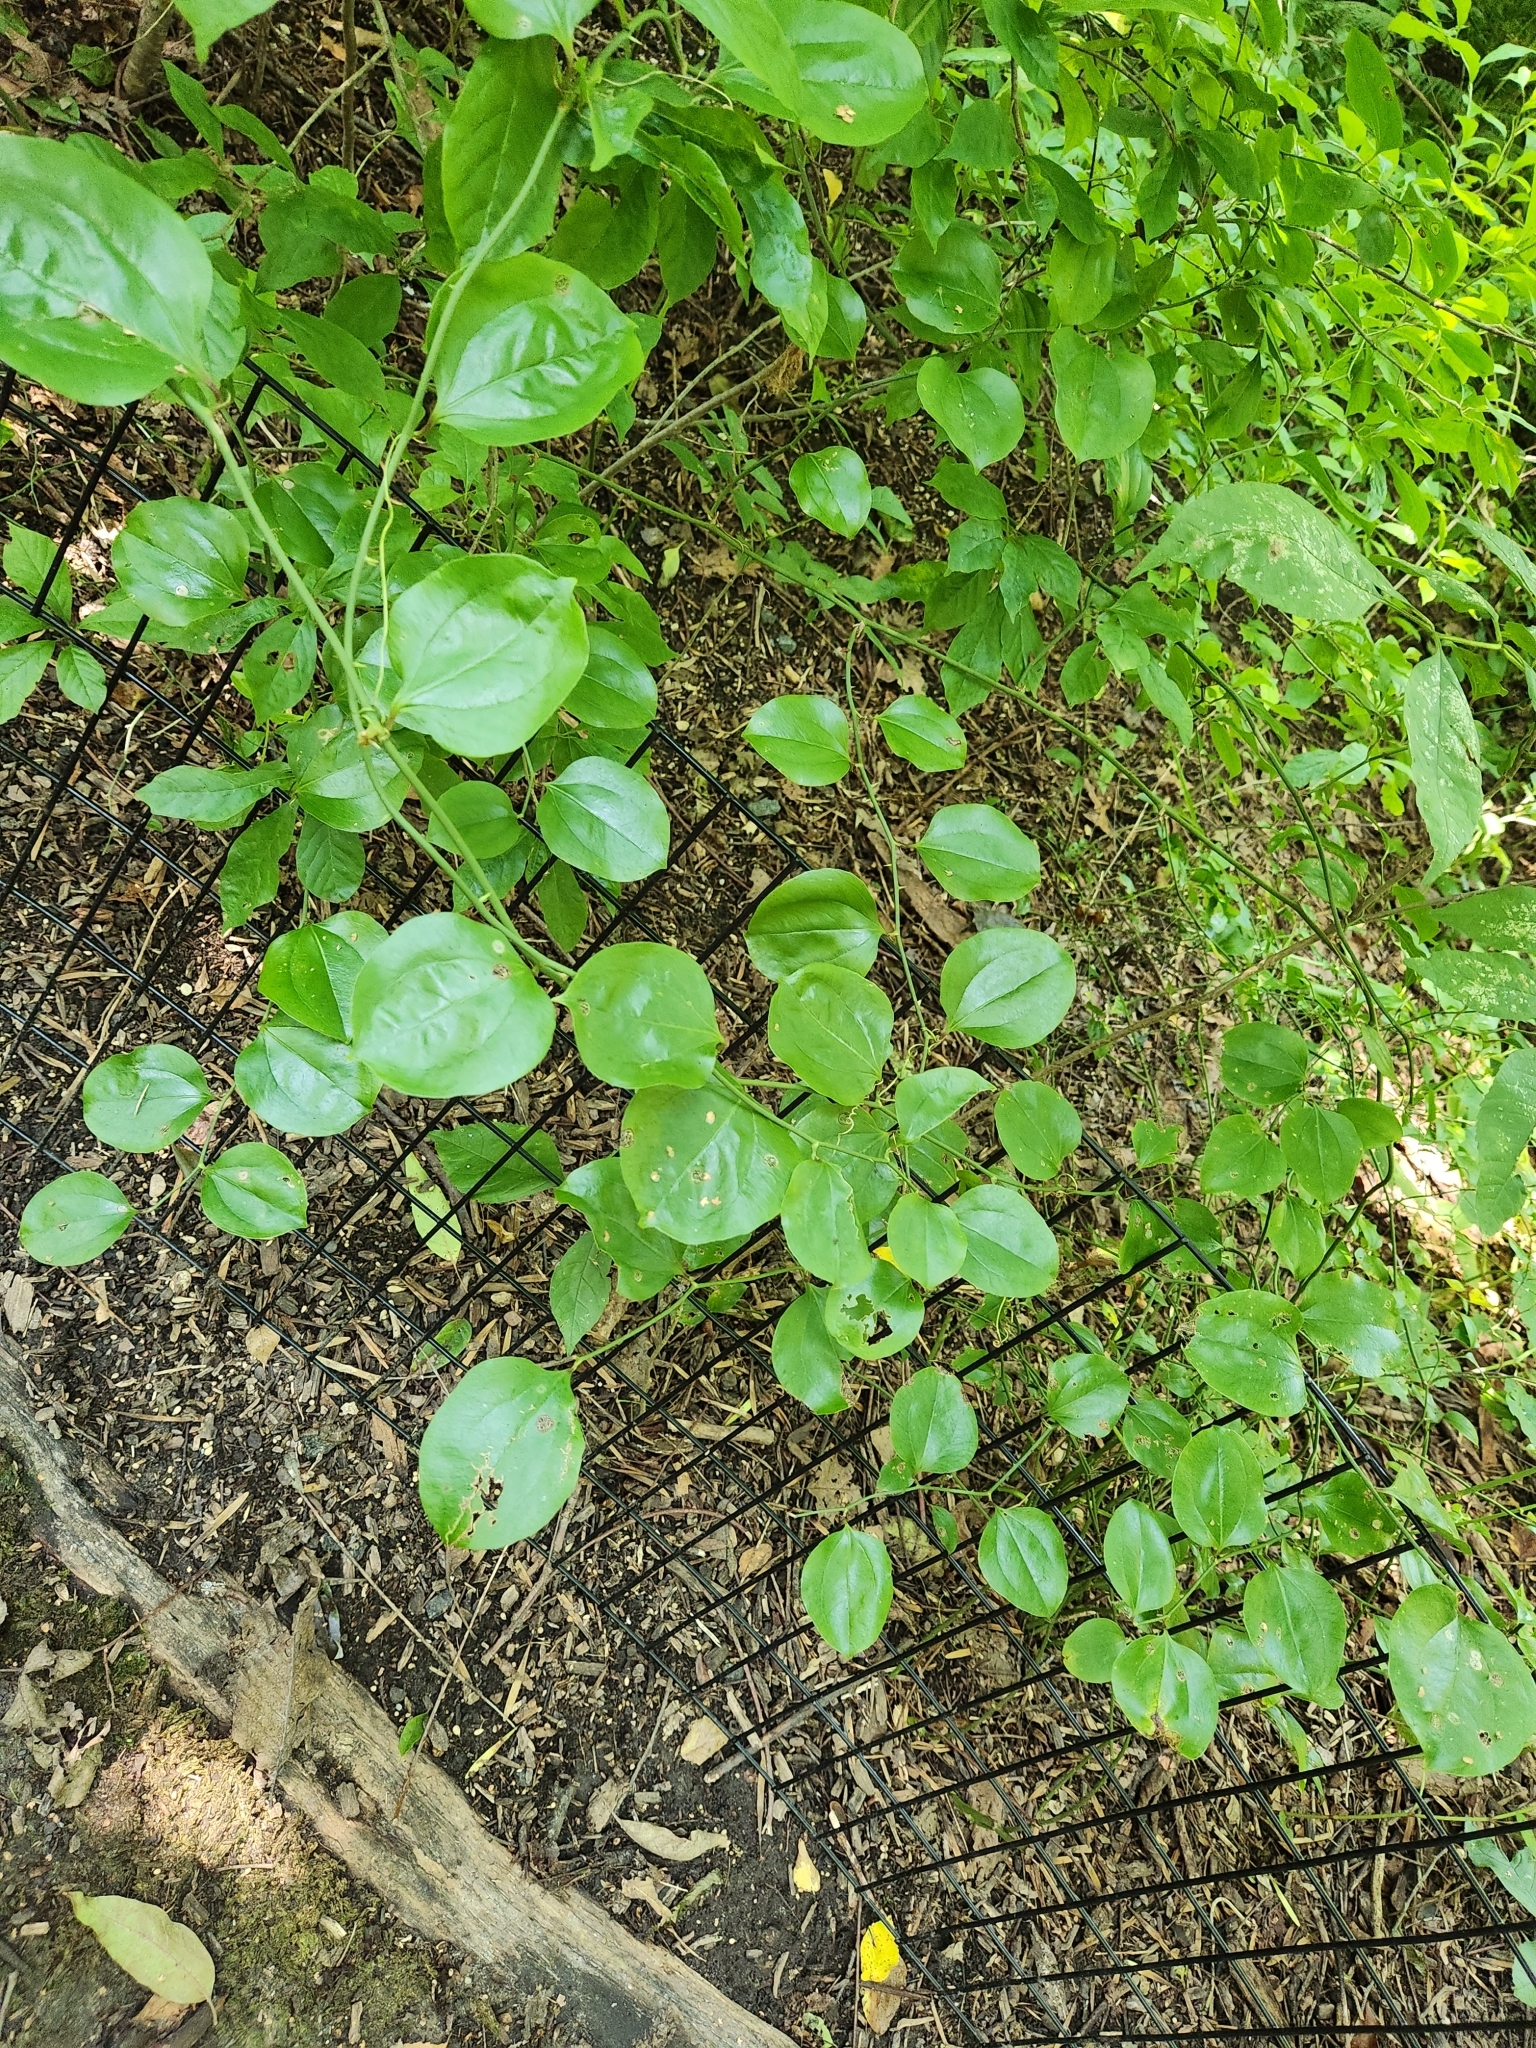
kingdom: Plantae
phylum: Tracheophyta
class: Liliopsida
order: Liliales
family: Smilacaceae
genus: Smilax
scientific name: Smilax rotundifolia
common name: Bullbriar
